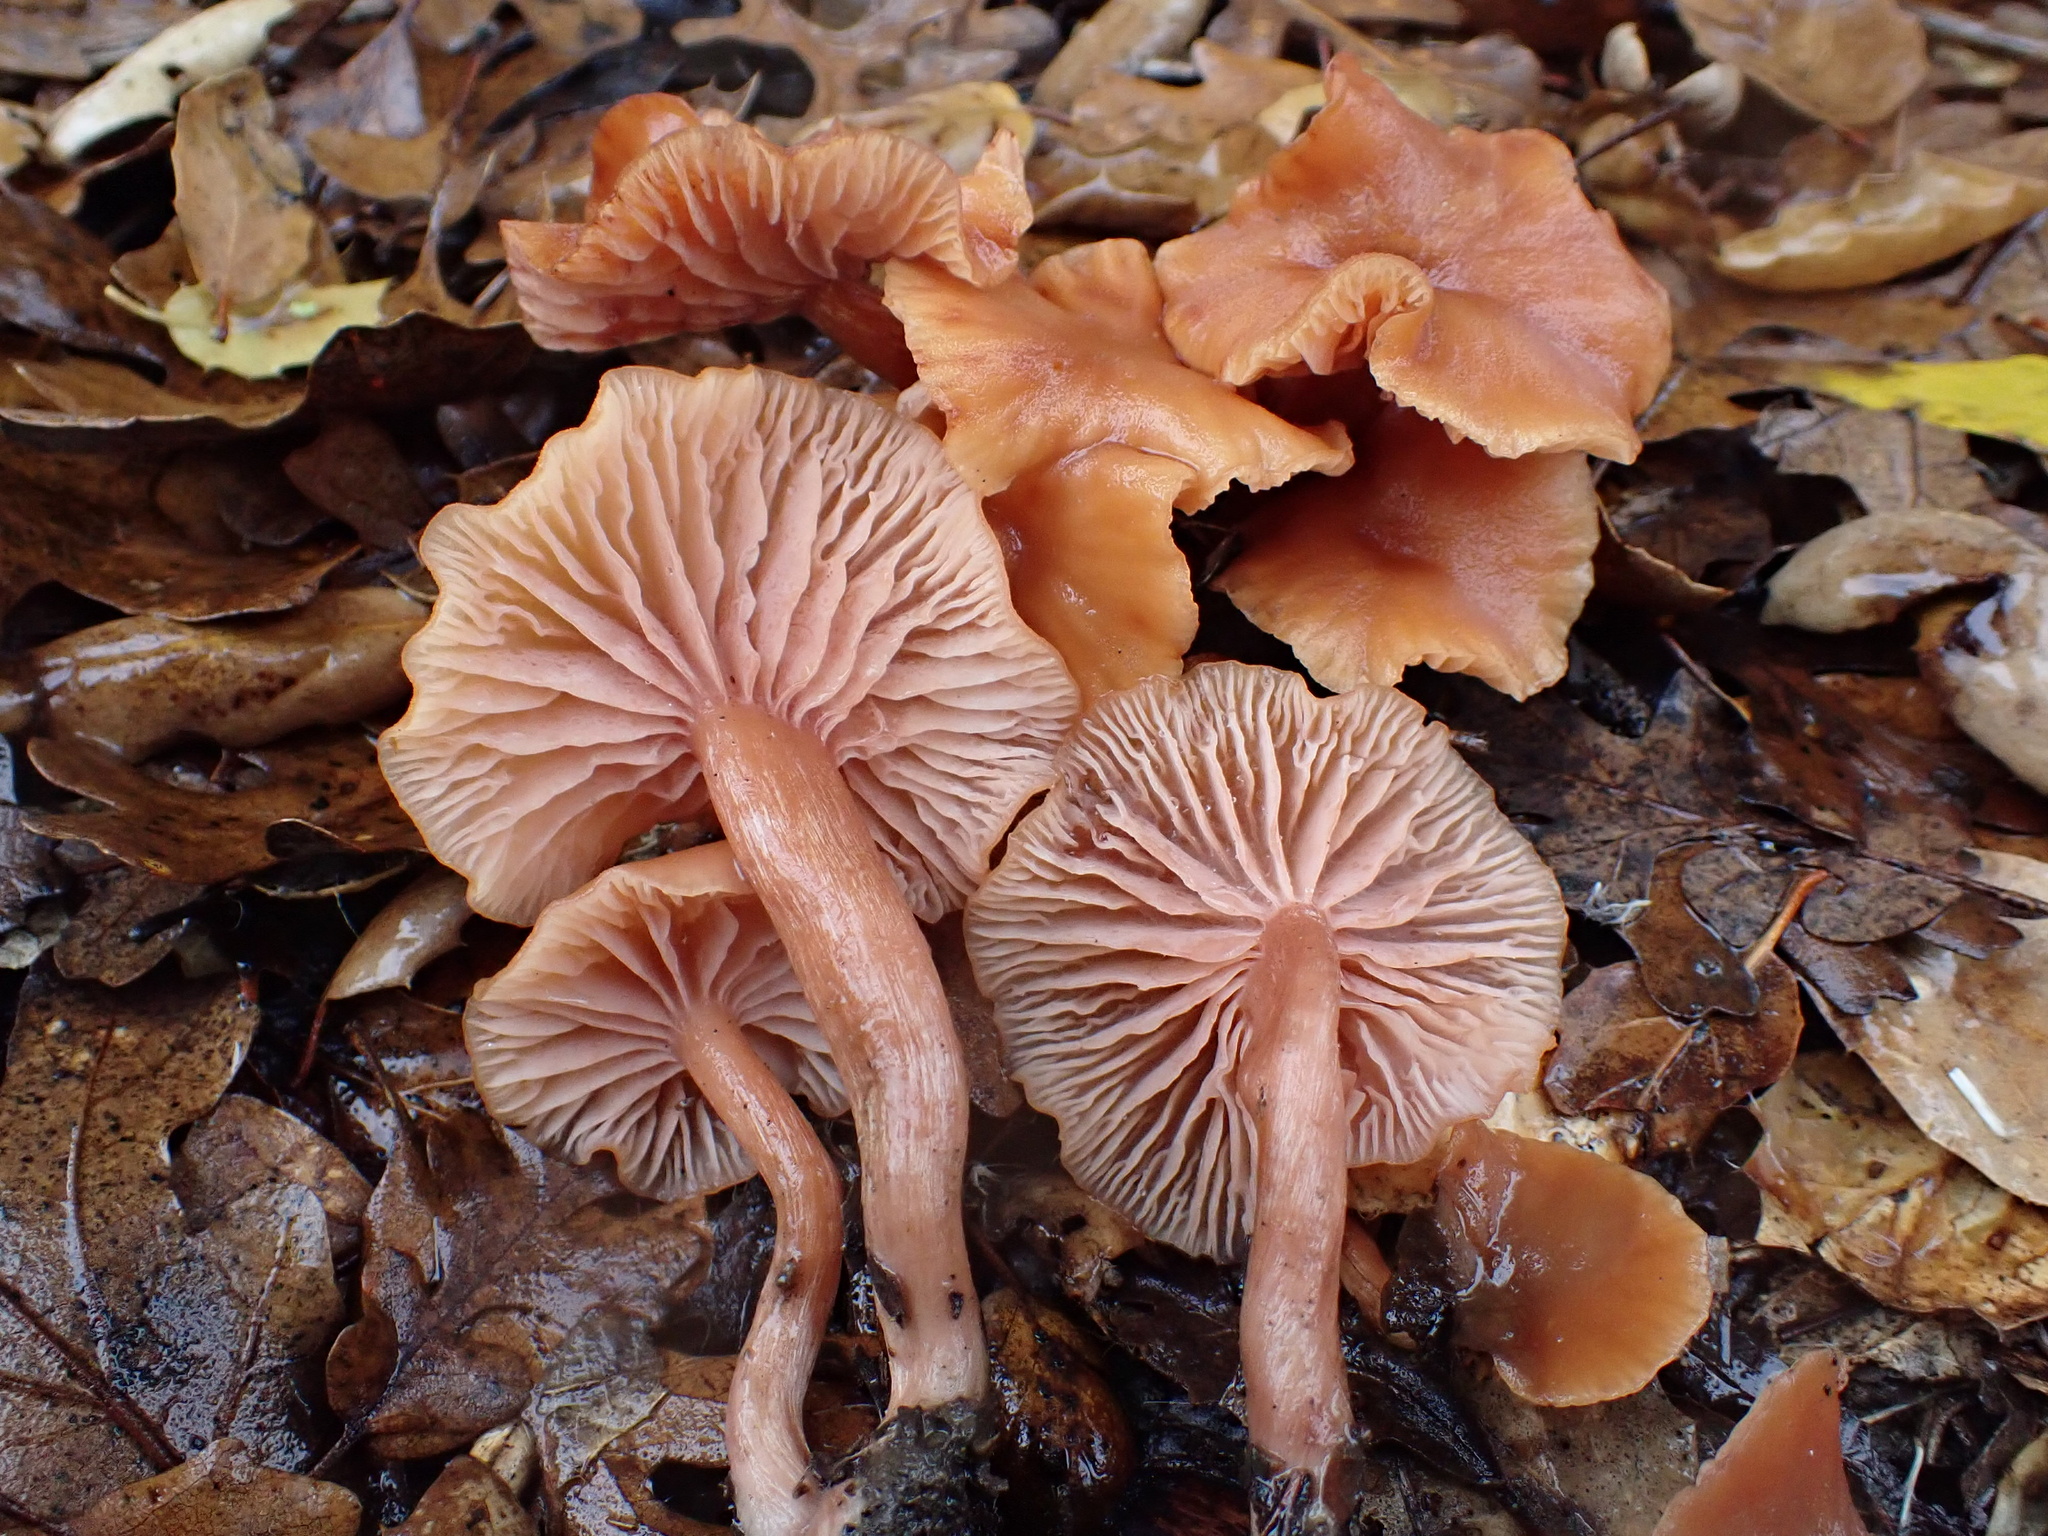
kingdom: Fungi
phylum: Basidiomycota
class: Agaricomycetes
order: Agaricales
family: Hydnangiaceae
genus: Laccaria
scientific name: Laccaria laccata
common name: Deceiver
